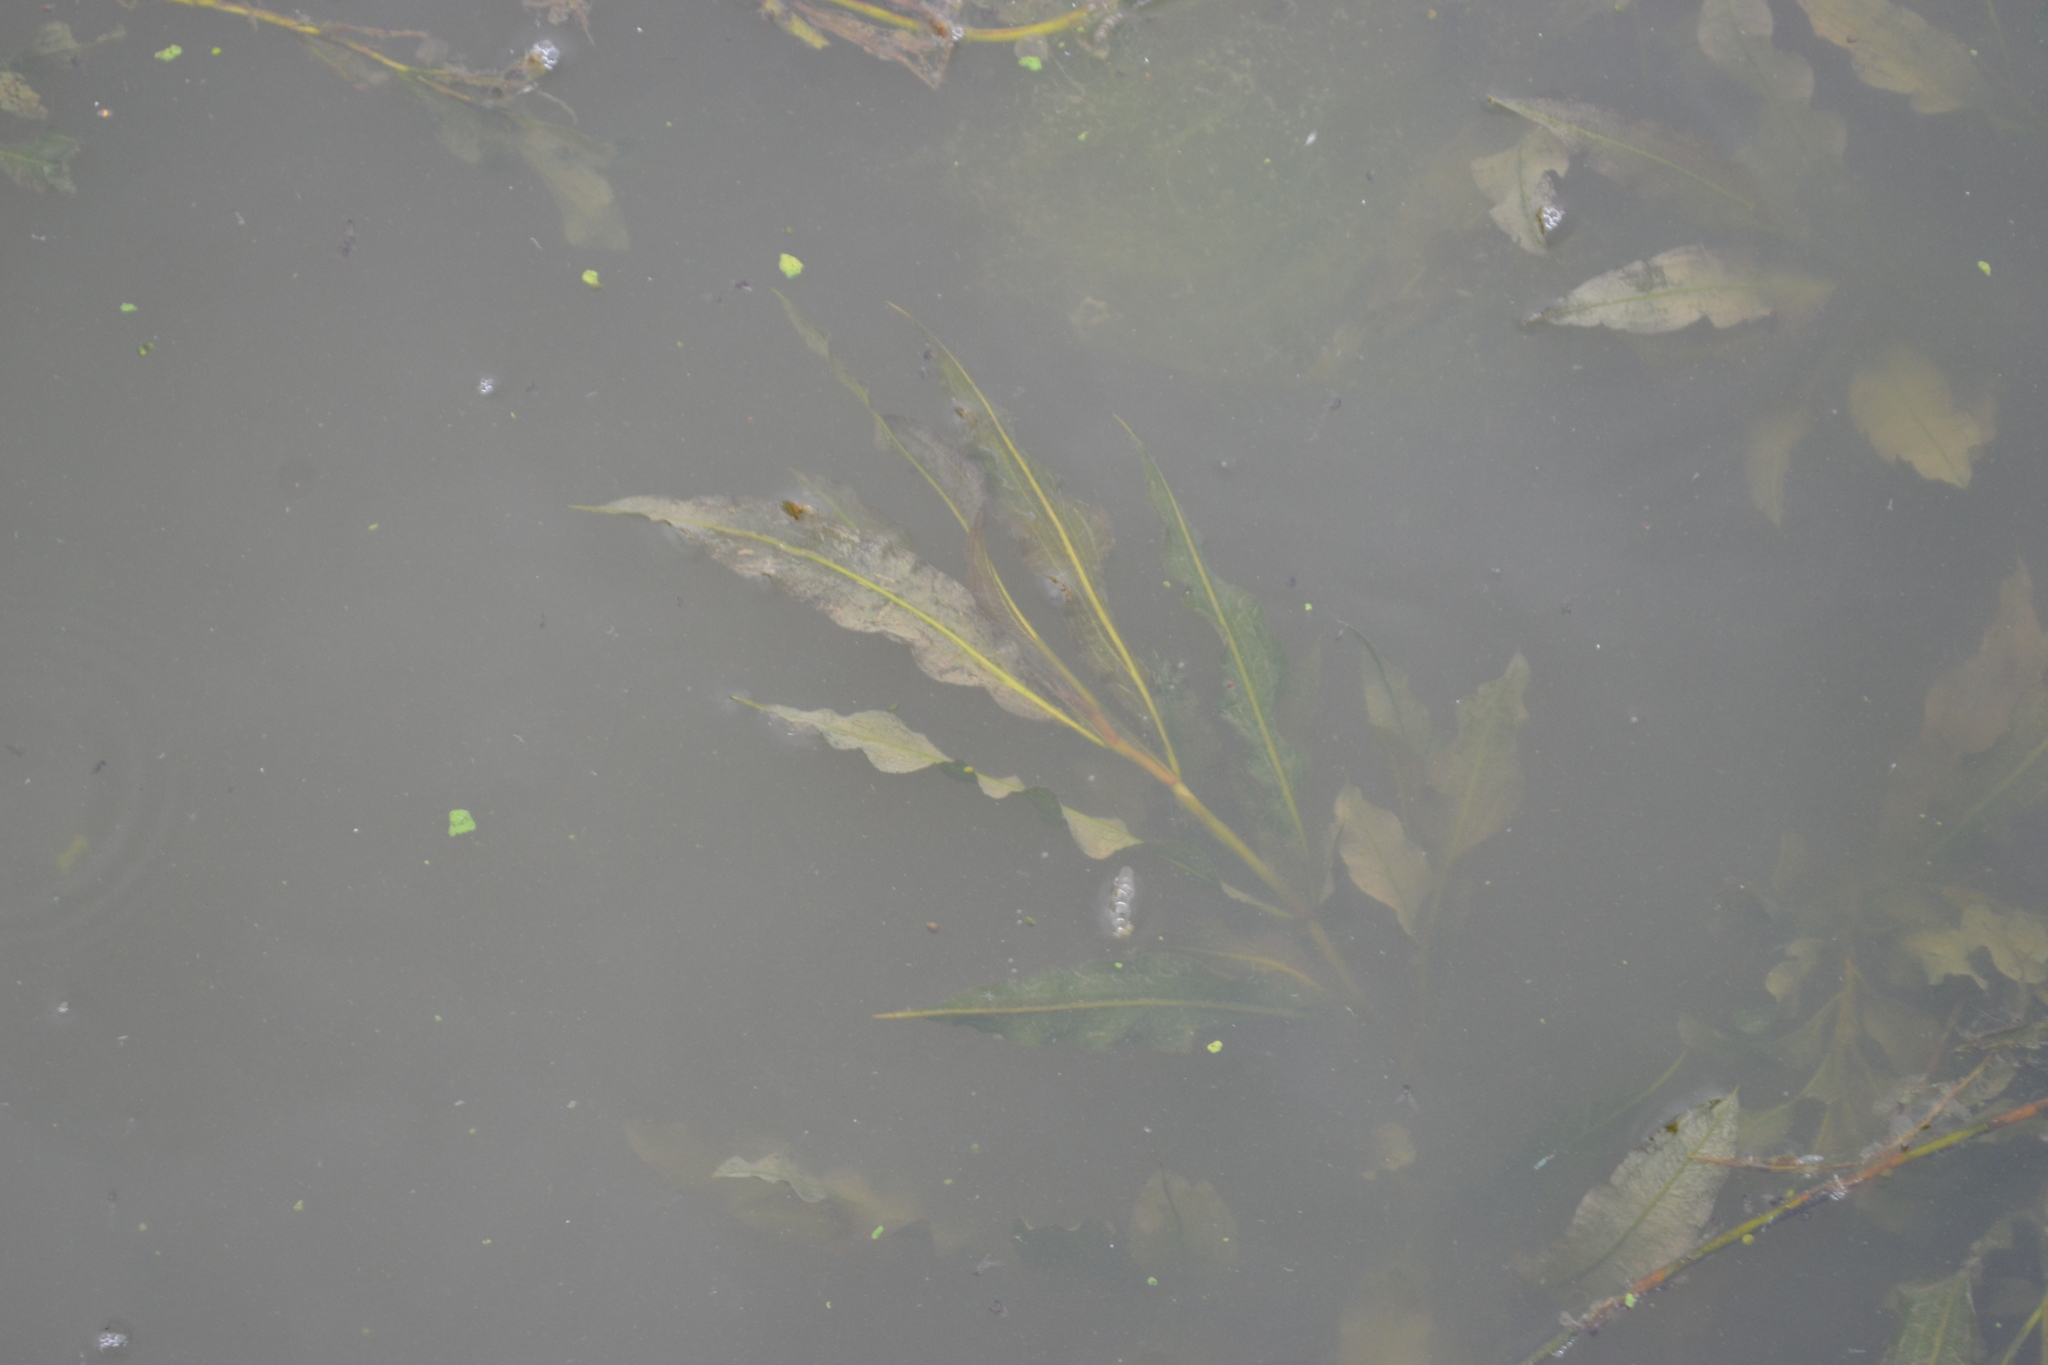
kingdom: Plantae
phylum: Tracheophyta
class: Liliopsida
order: Alismatales
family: Potamogetonaceae
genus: Potamogeton
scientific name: Potamogeton lucens
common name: Shining pondweed
